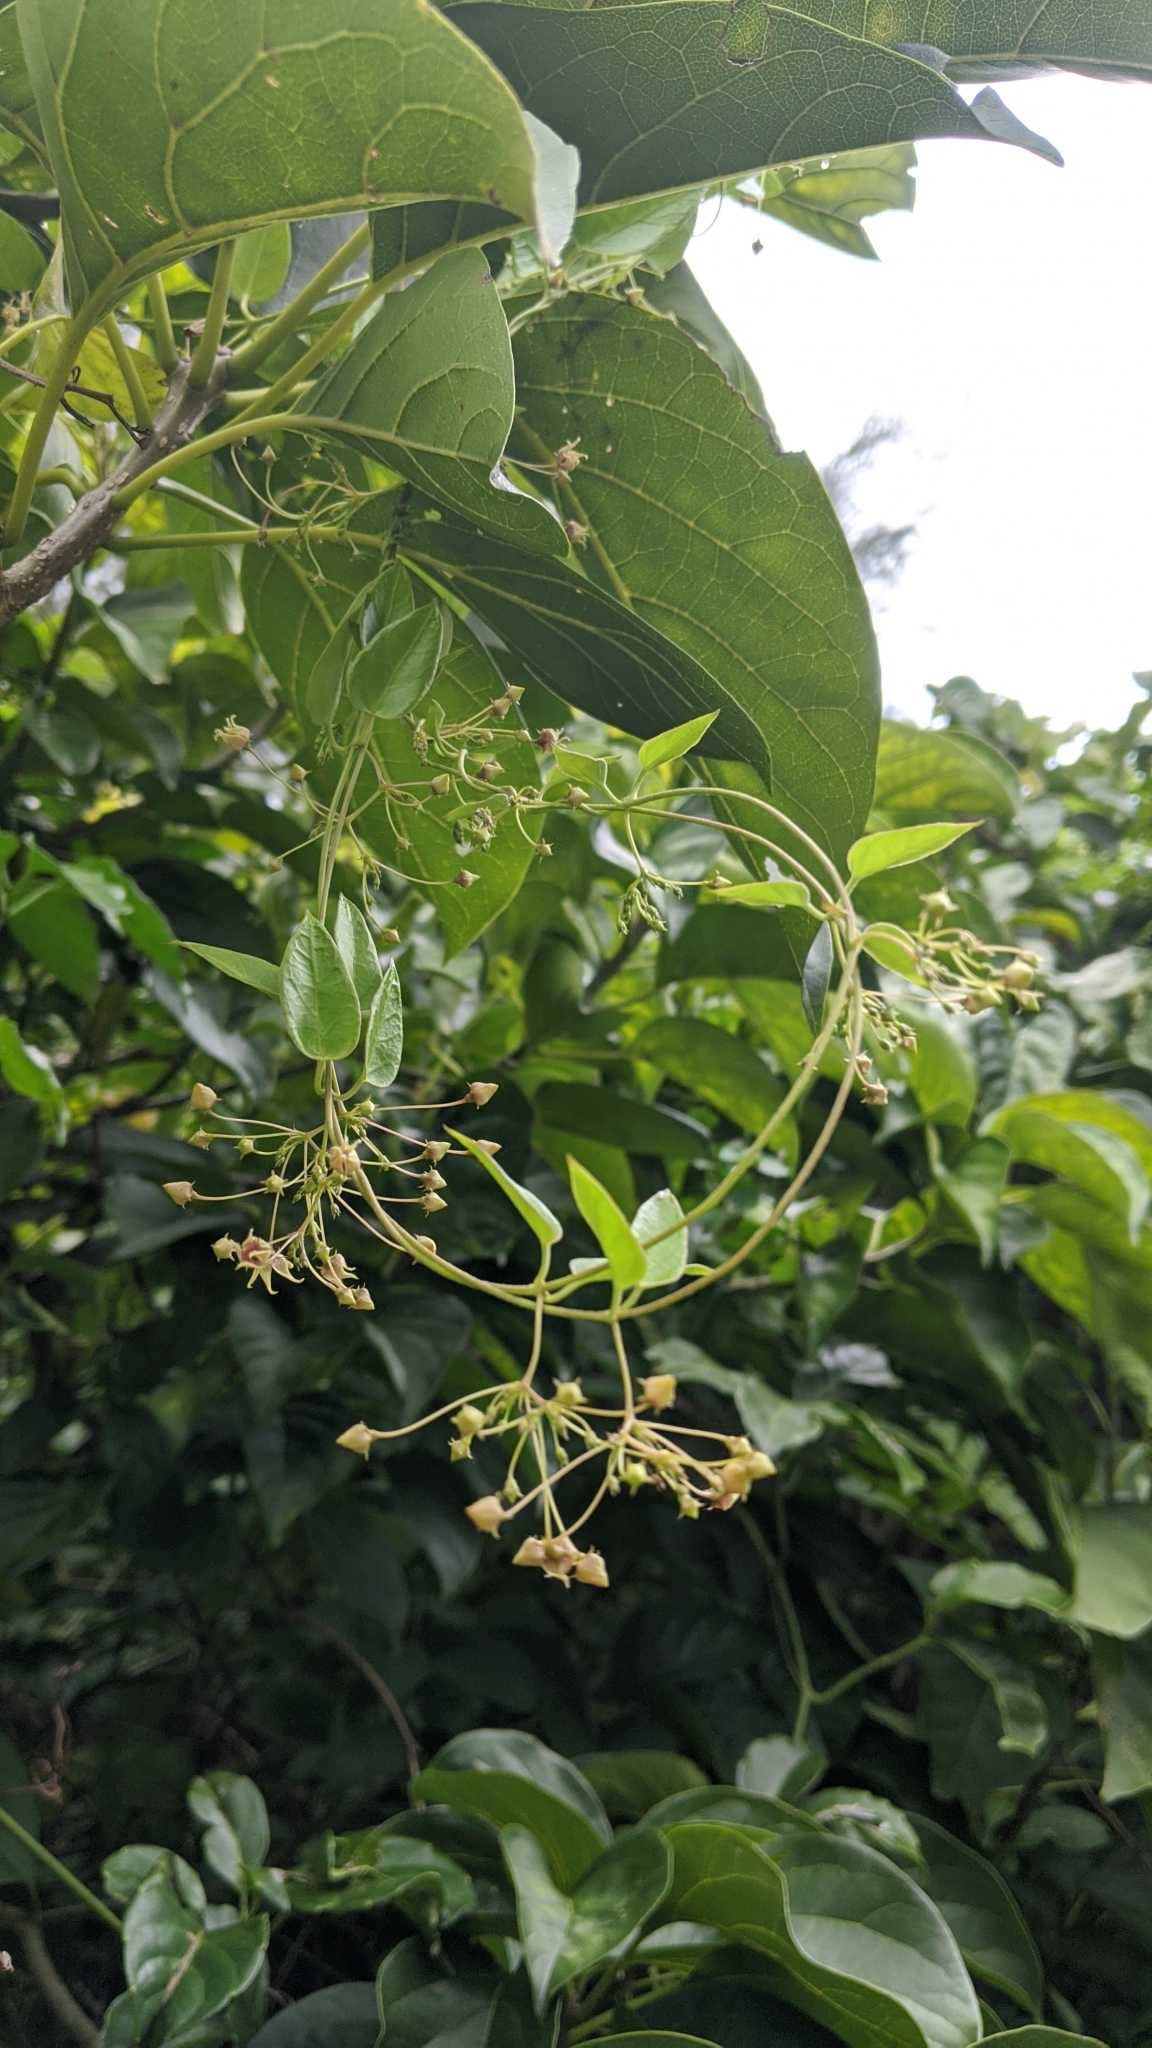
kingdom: Plantae
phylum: Tracheophyta
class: Magnoliopsida
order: Gentianales
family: Apocynaceae
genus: Vincetoxicum
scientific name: Vincetoxicum hirsutum
